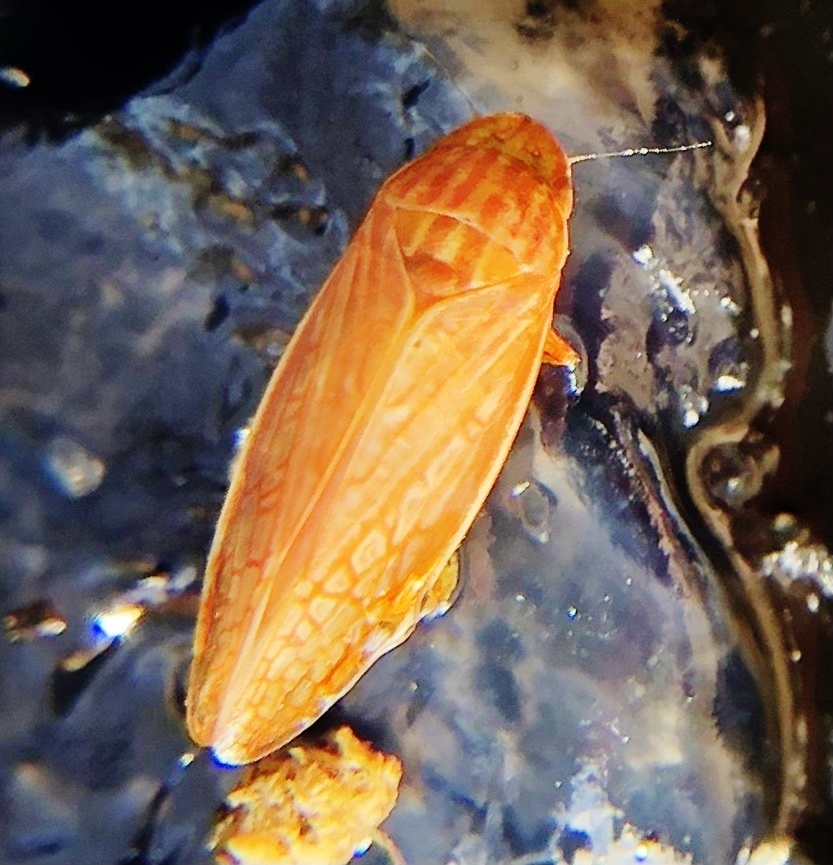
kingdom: Animalia
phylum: Arthropoda
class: Insecta
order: Hemiptera
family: Cicadellidae
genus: Gyponana
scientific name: Gyponana gladia
